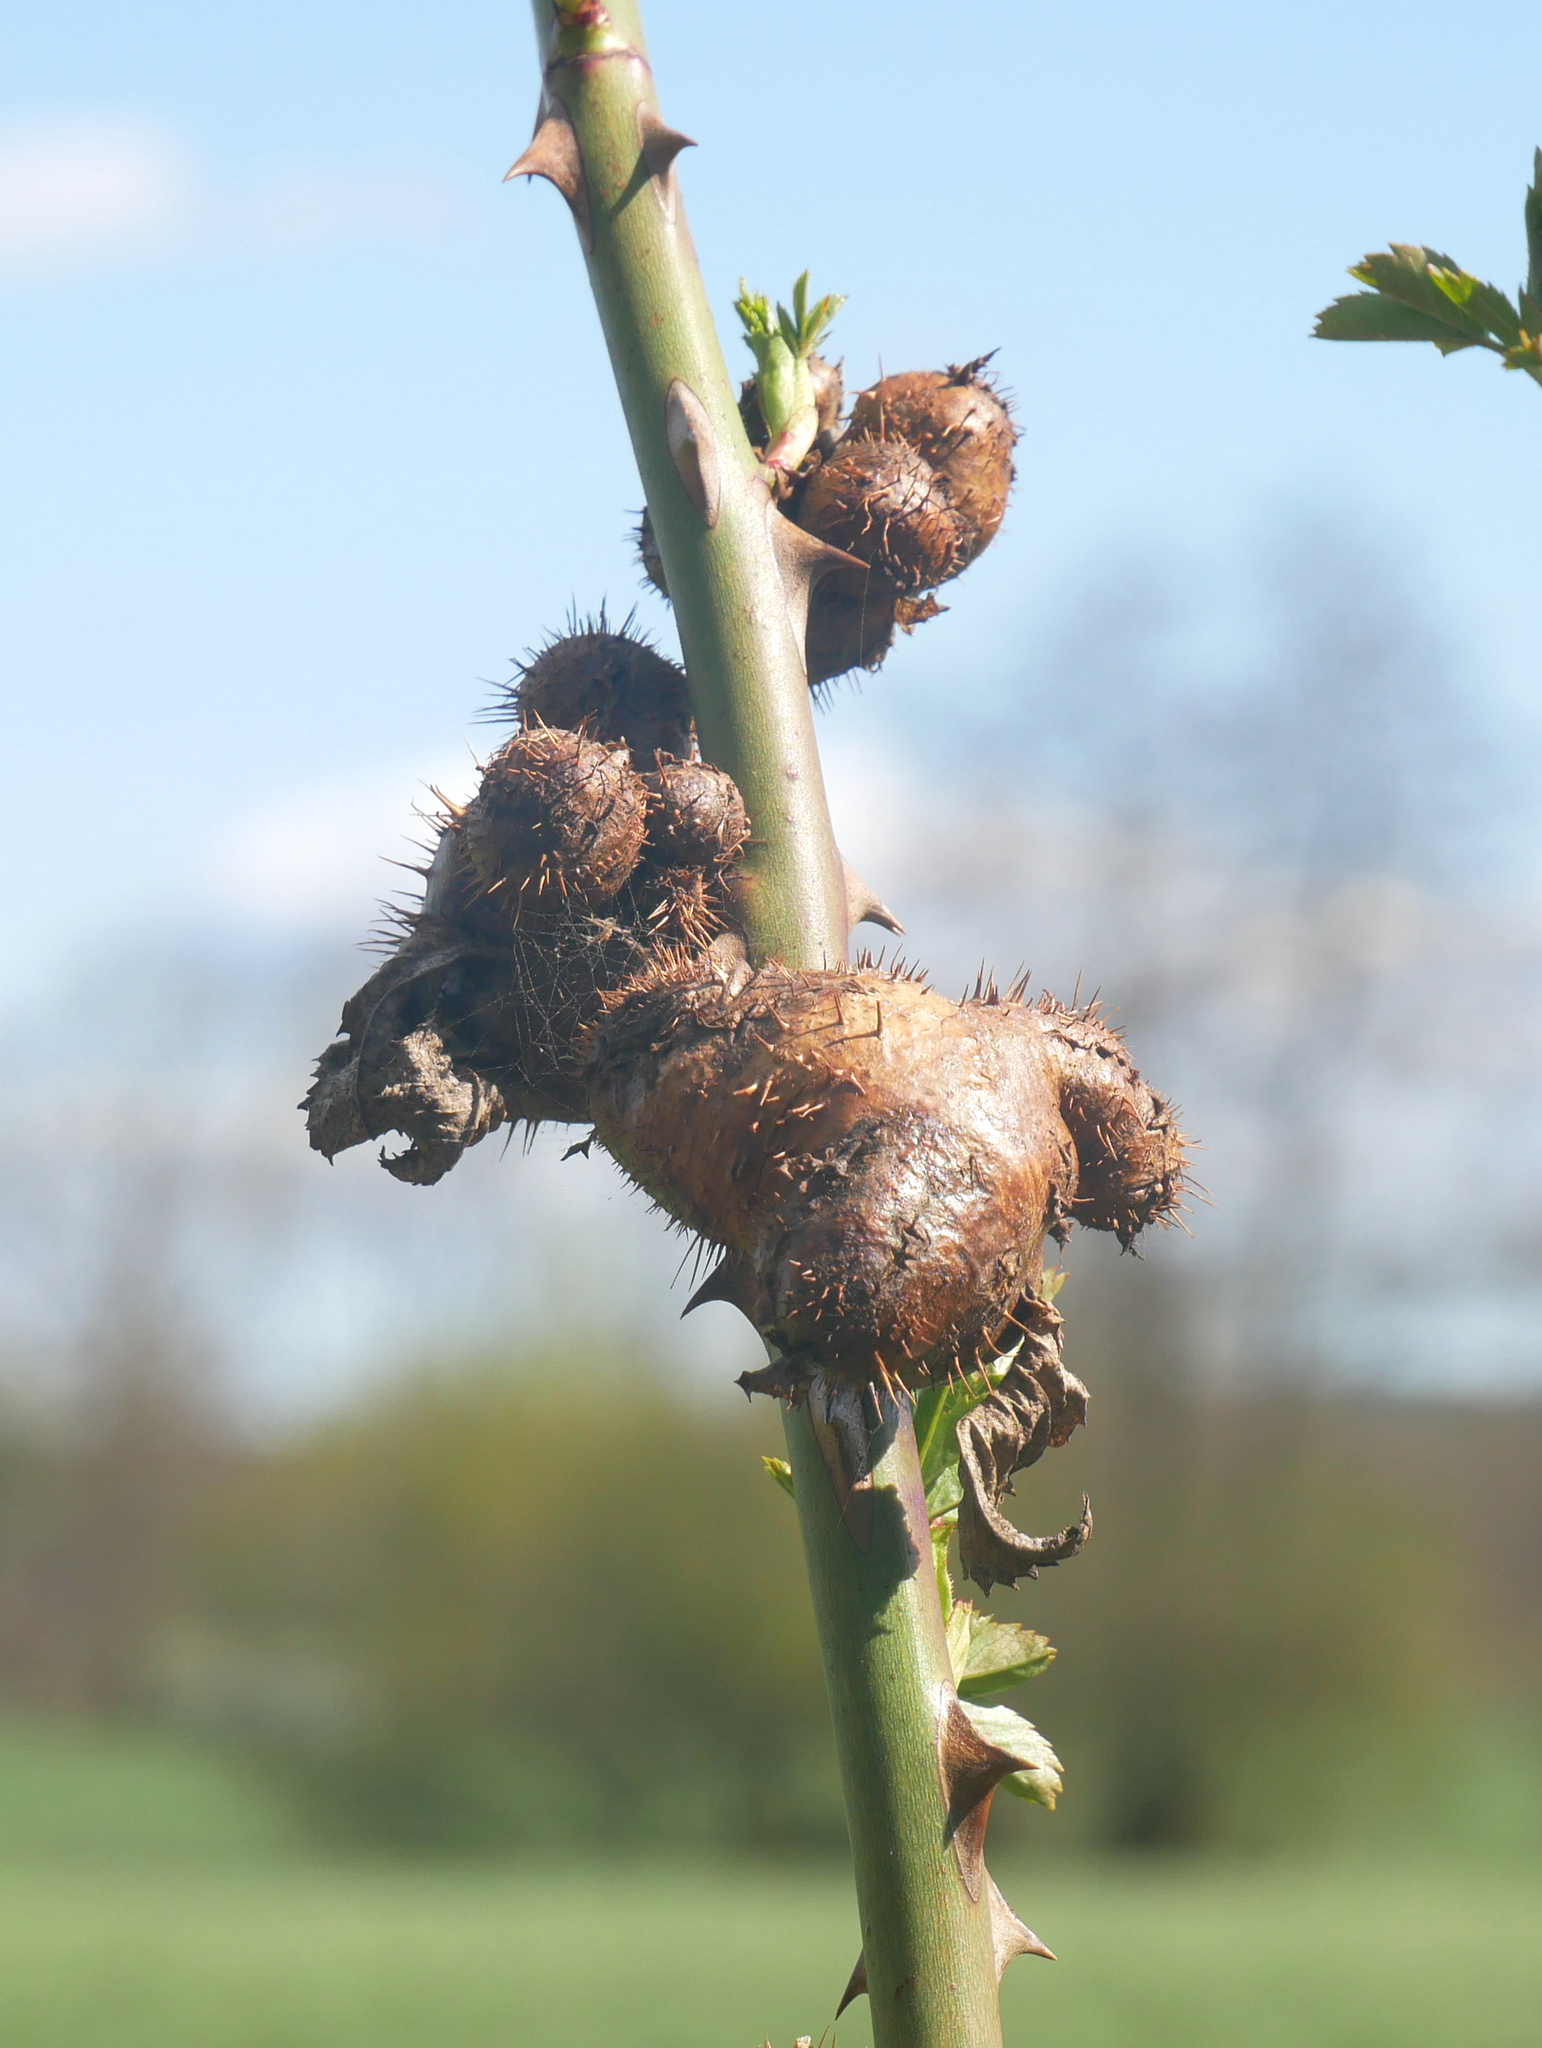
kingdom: Animalia
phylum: Arthropoda
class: Insecta
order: Hymenoptera
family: Cynipidae
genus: Diplolepis
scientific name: Diplolepis mayri
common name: Gall wasp
